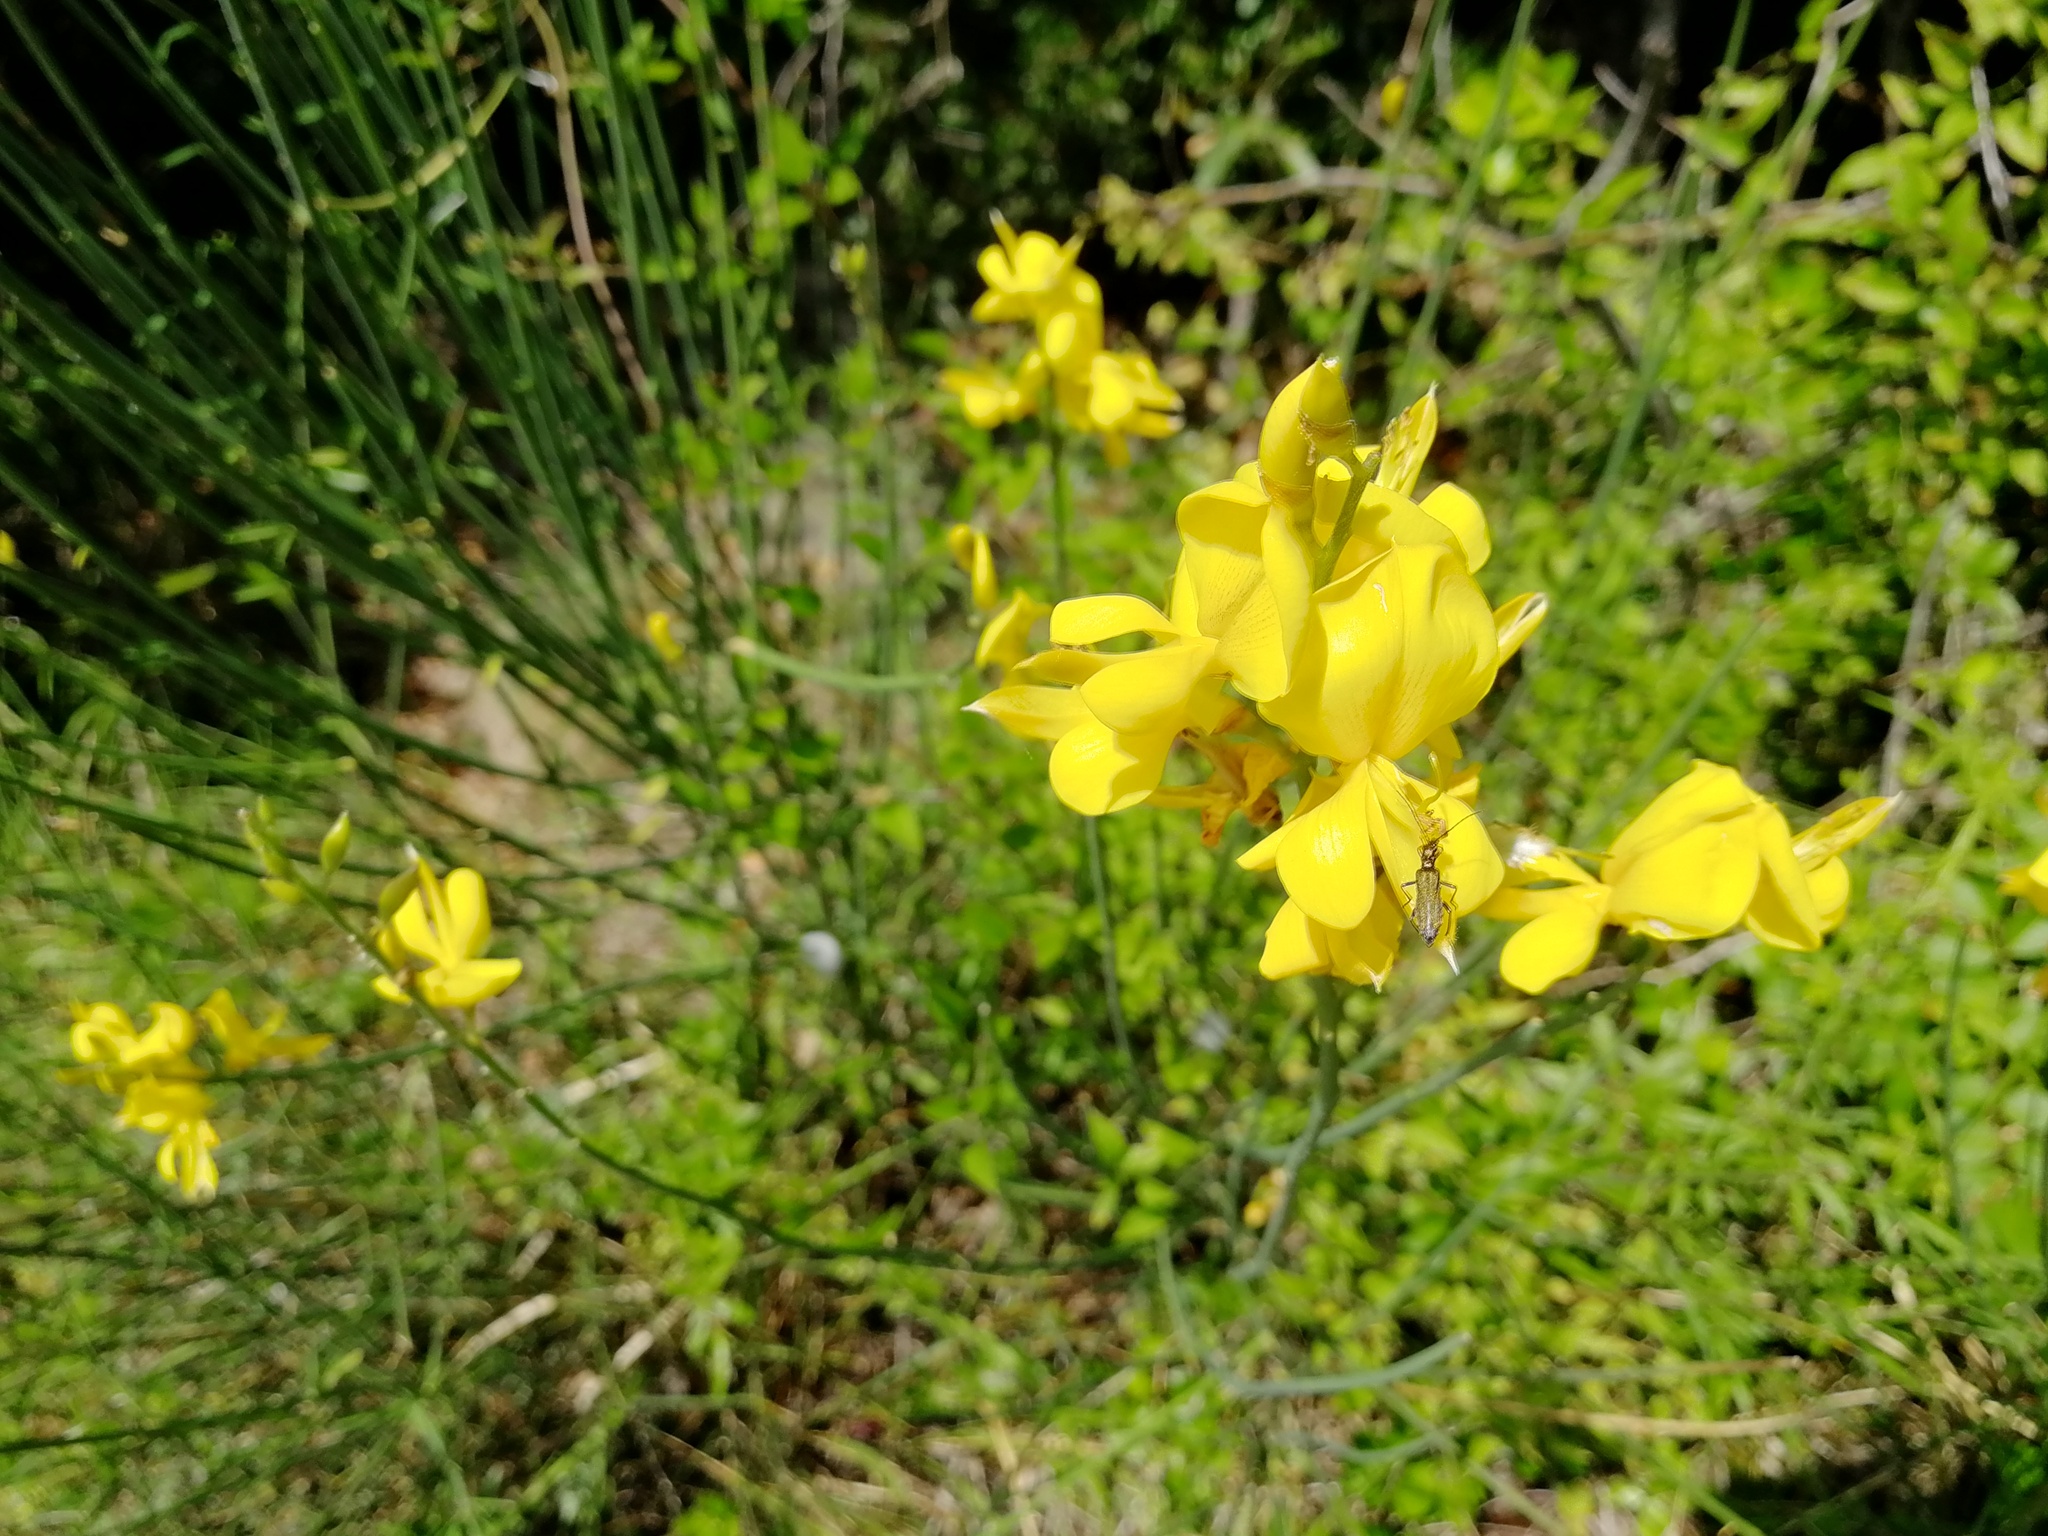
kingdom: Plantae
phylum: Tracheophyta
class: Magnoliopsida
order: Fabales
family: Fabaceae
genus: Spartium
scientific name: Spartium junceum
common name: Spanish broom
